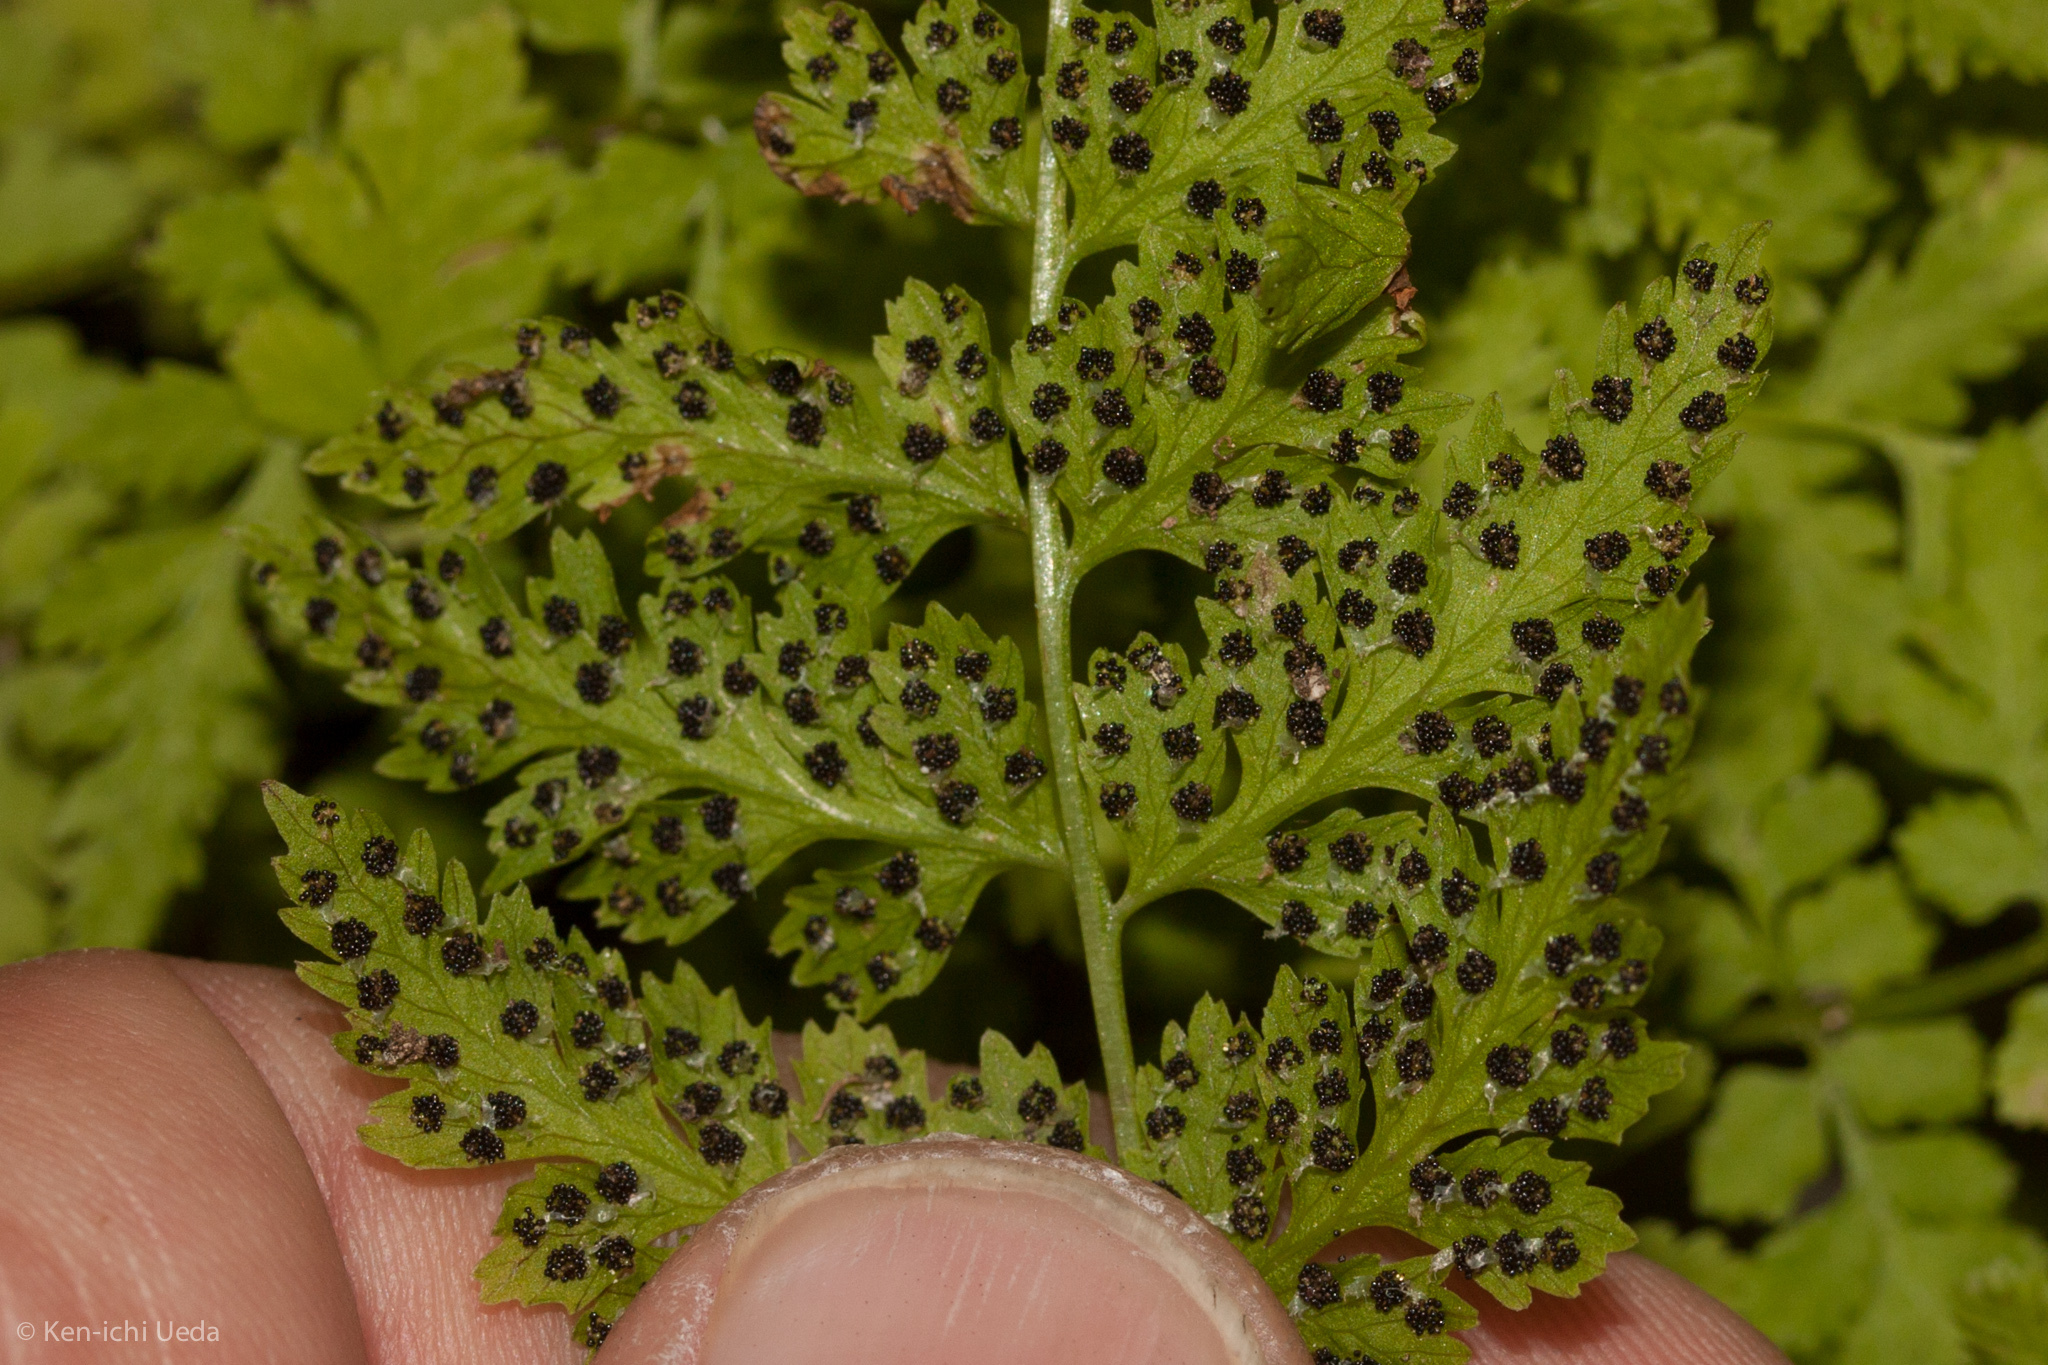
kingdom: Plantae
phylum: Tracheophyta
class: Polypodiopsida
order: Polypodiales
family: Cystopteridaceae
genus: Cystopteris
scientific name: Cystopteris fragilis
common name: Brittle bladder fern
